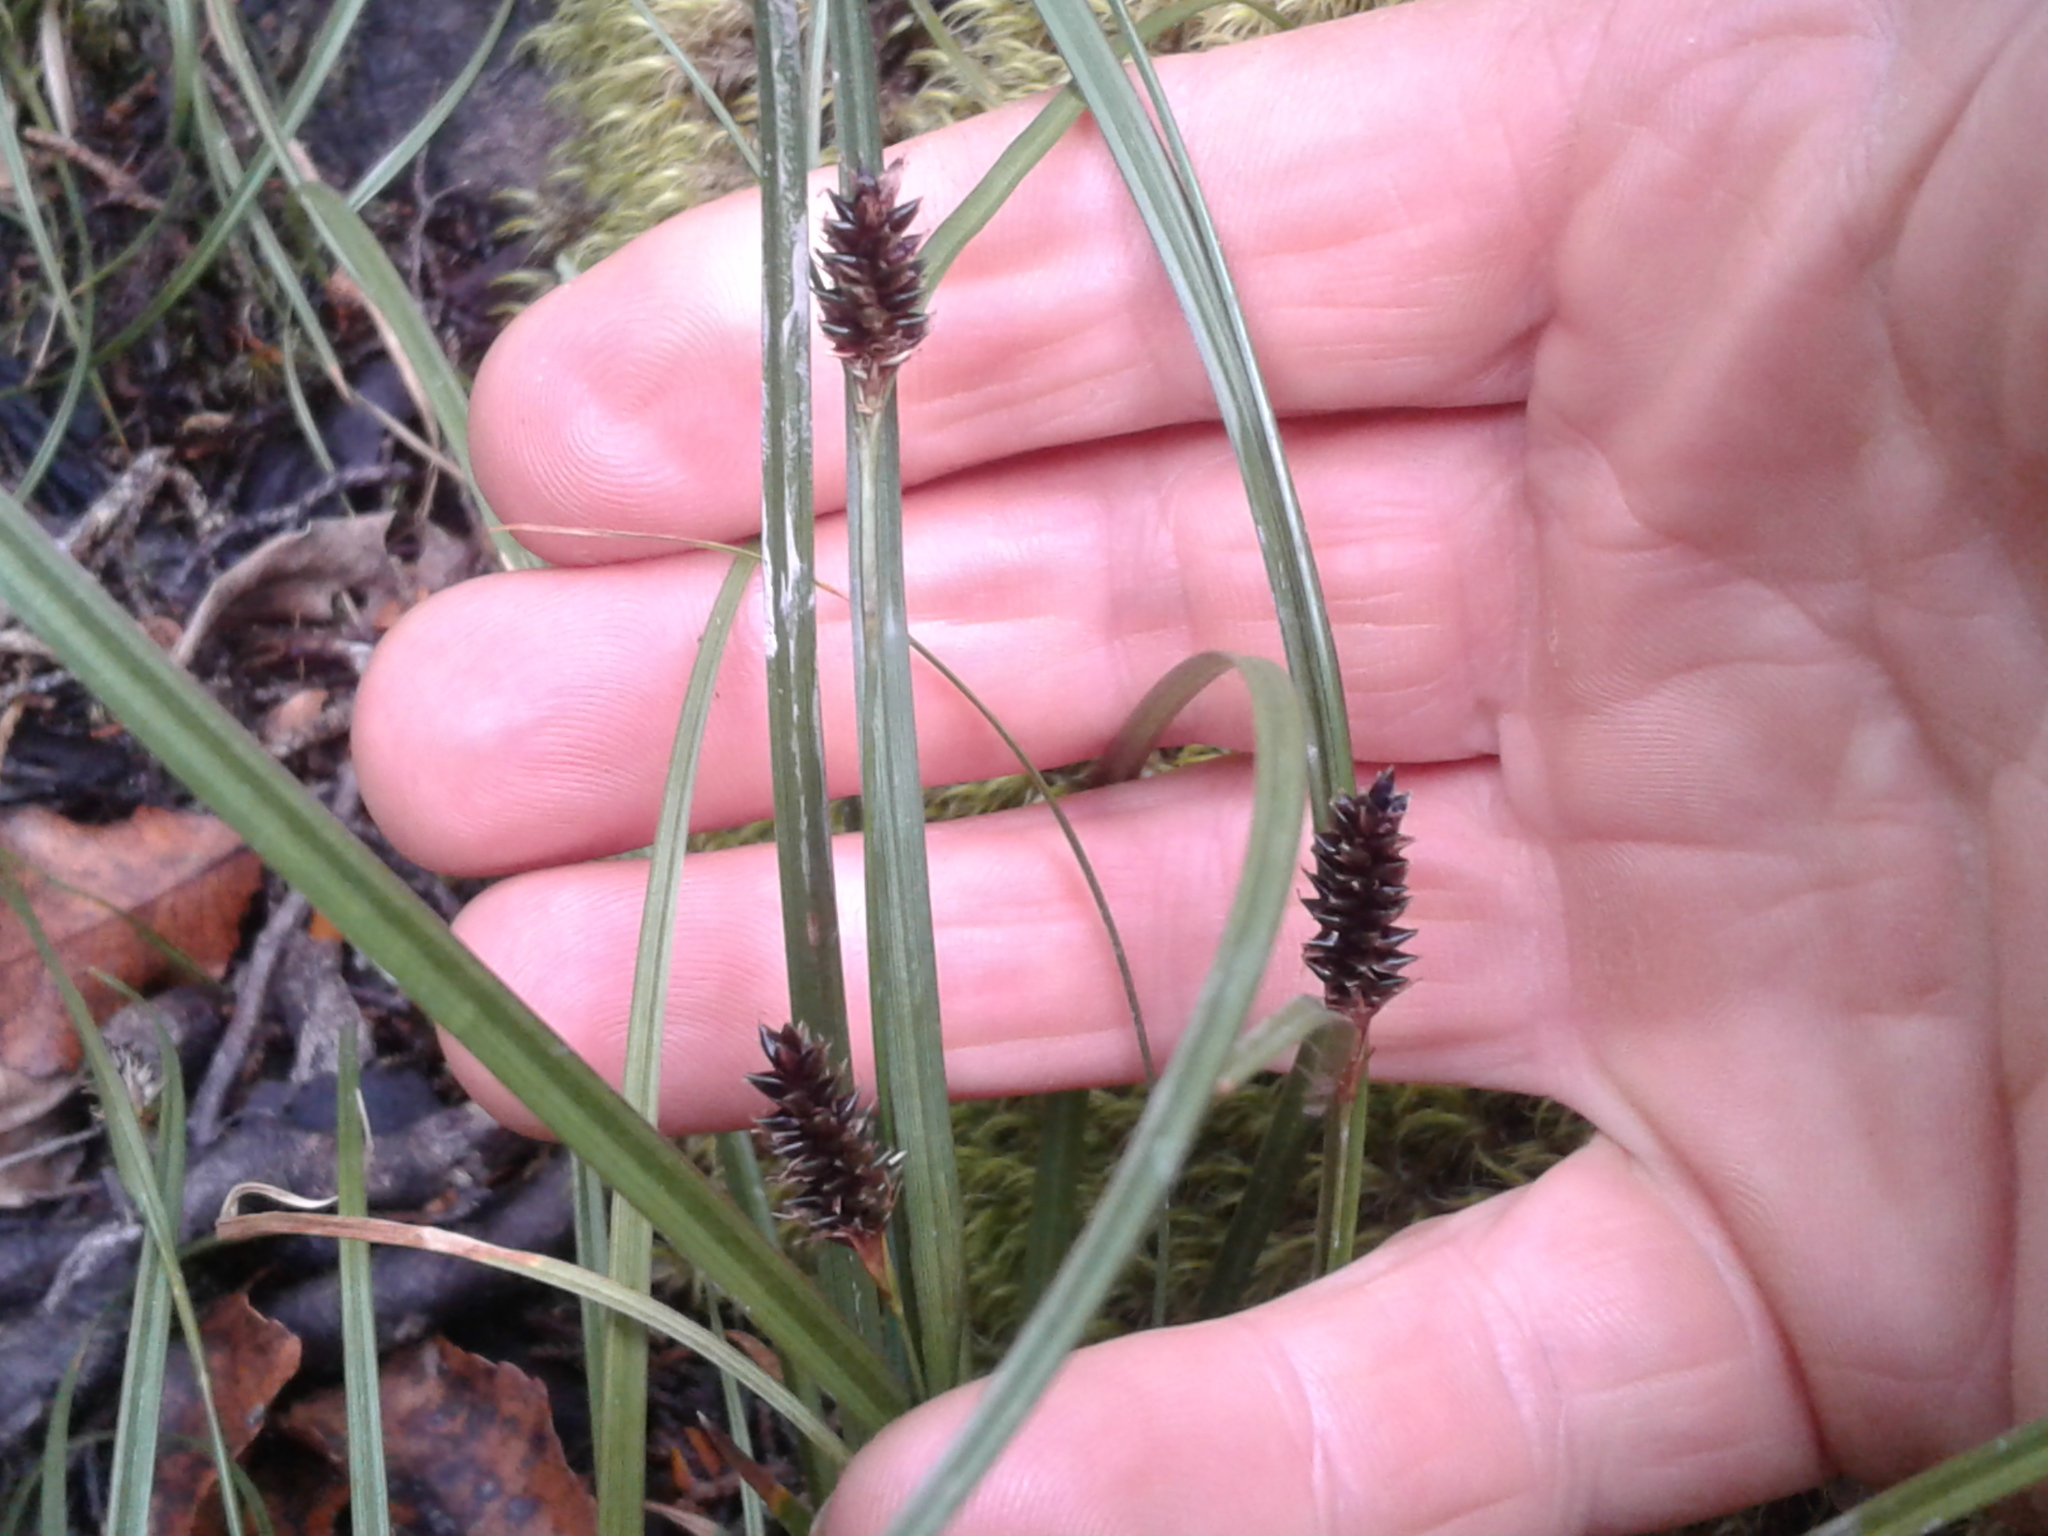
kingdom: Plantae
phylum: Tracheophyta
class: Liliopsida
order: Poales
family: Cyperaceae
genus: Carex
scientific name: Carex
